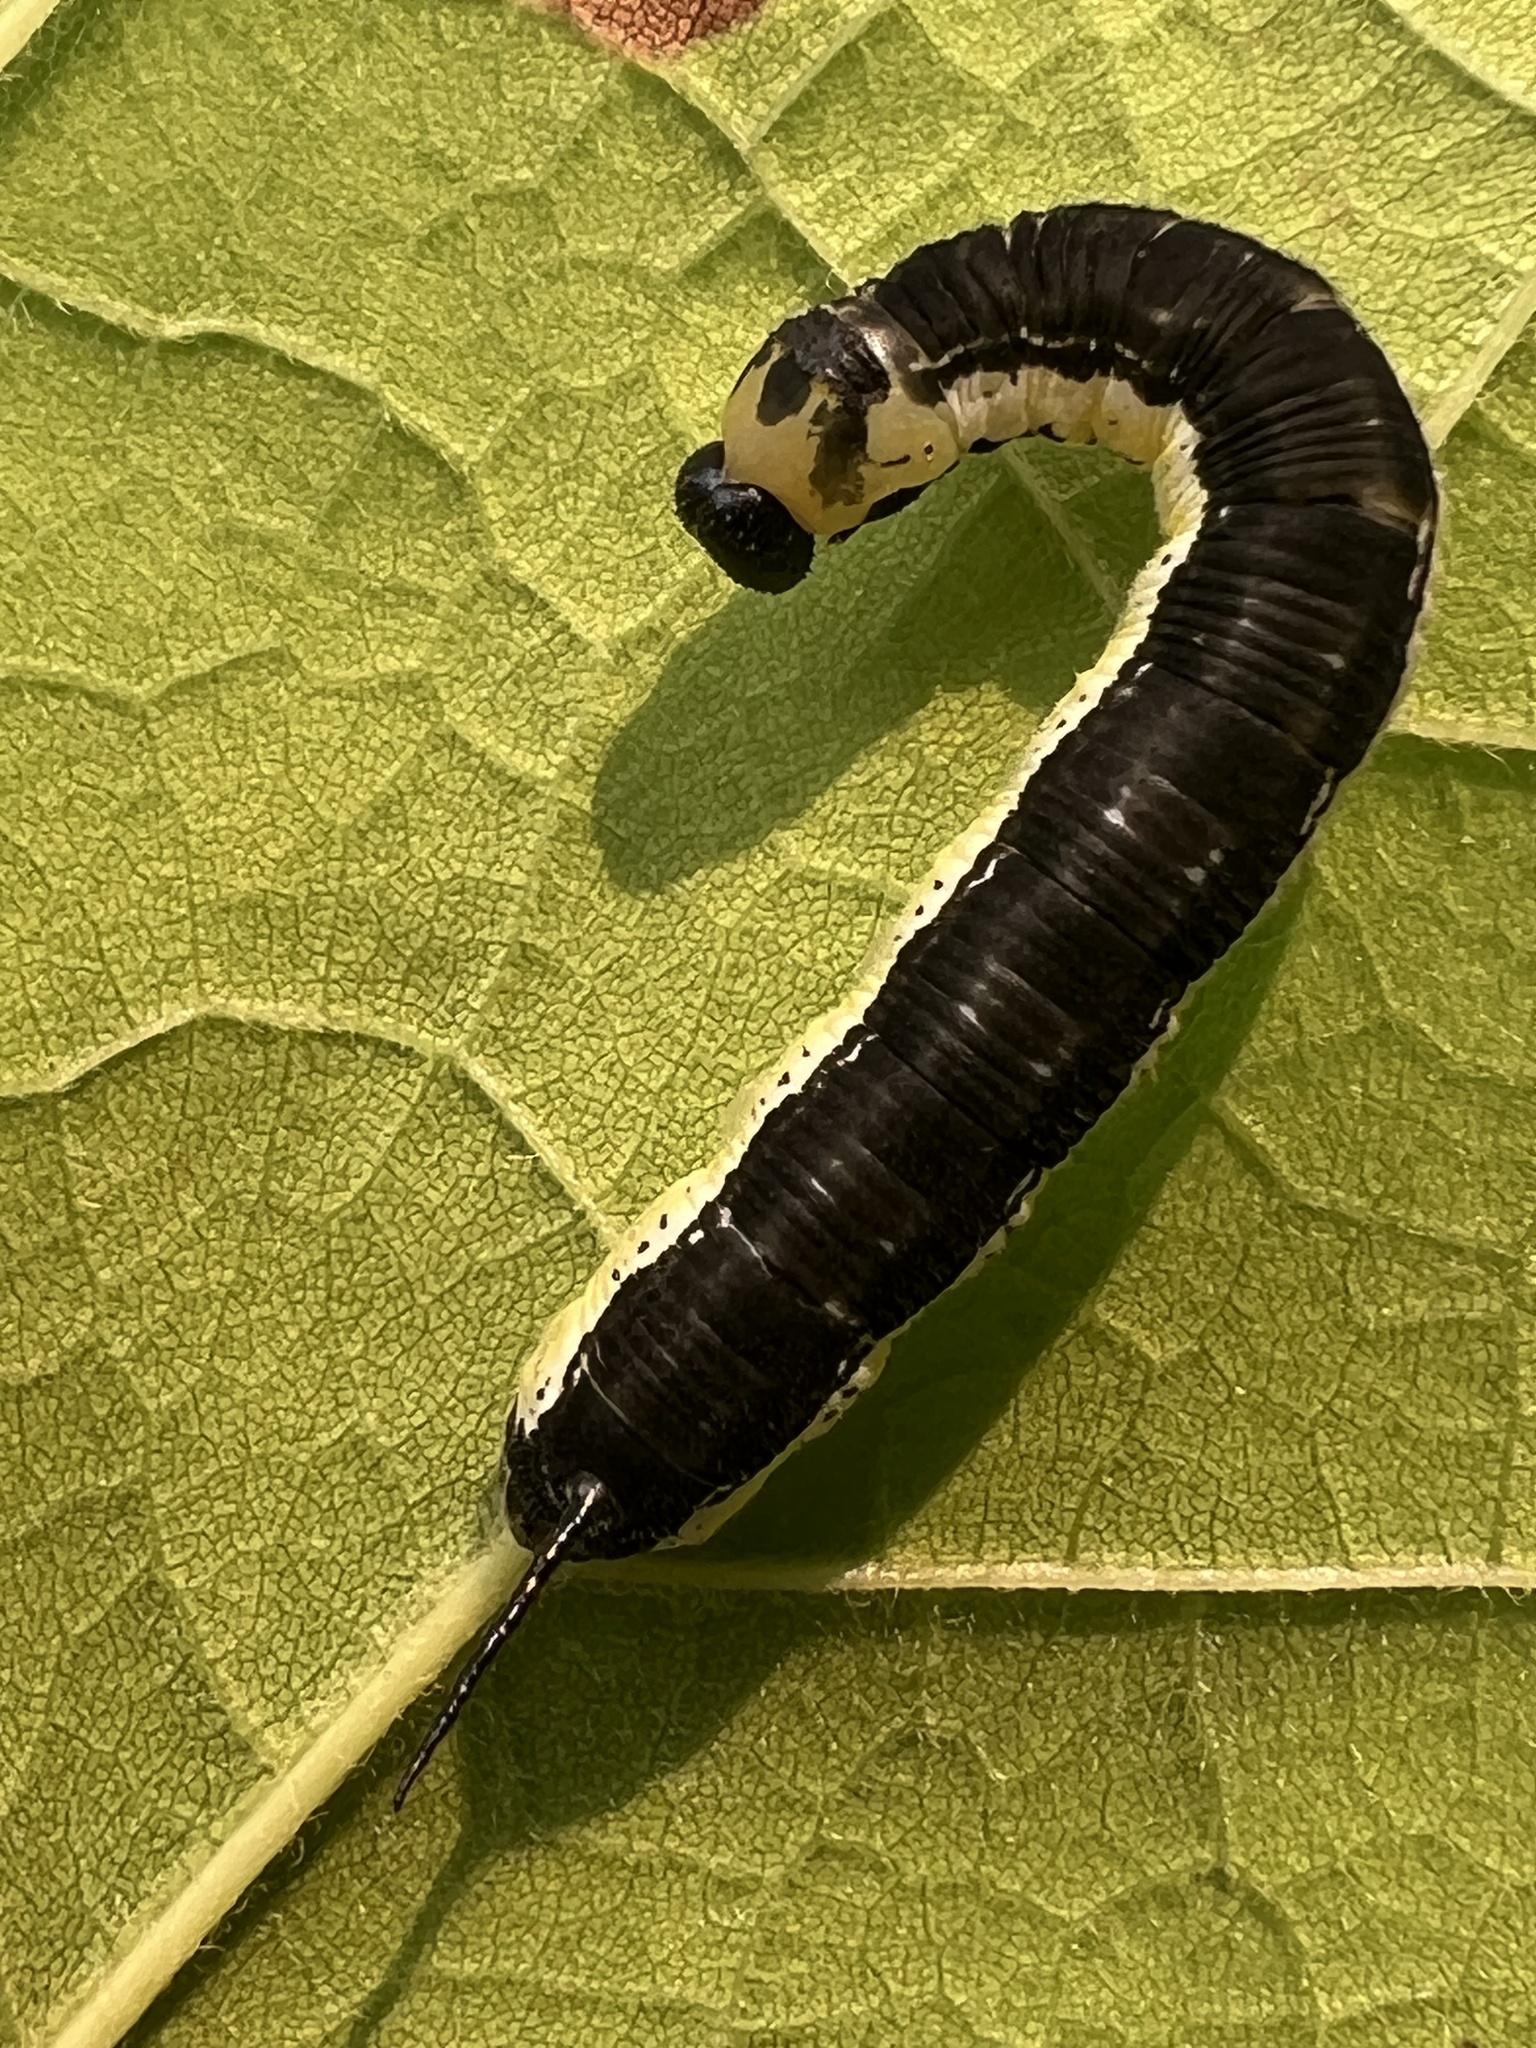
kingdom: Animalia
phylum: Arthropoda
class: Insecta
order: Lepidoptera
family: Sphingidae
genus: Ceratomia
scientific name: Ceratomia catalpae
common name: Catalpa hornworm
